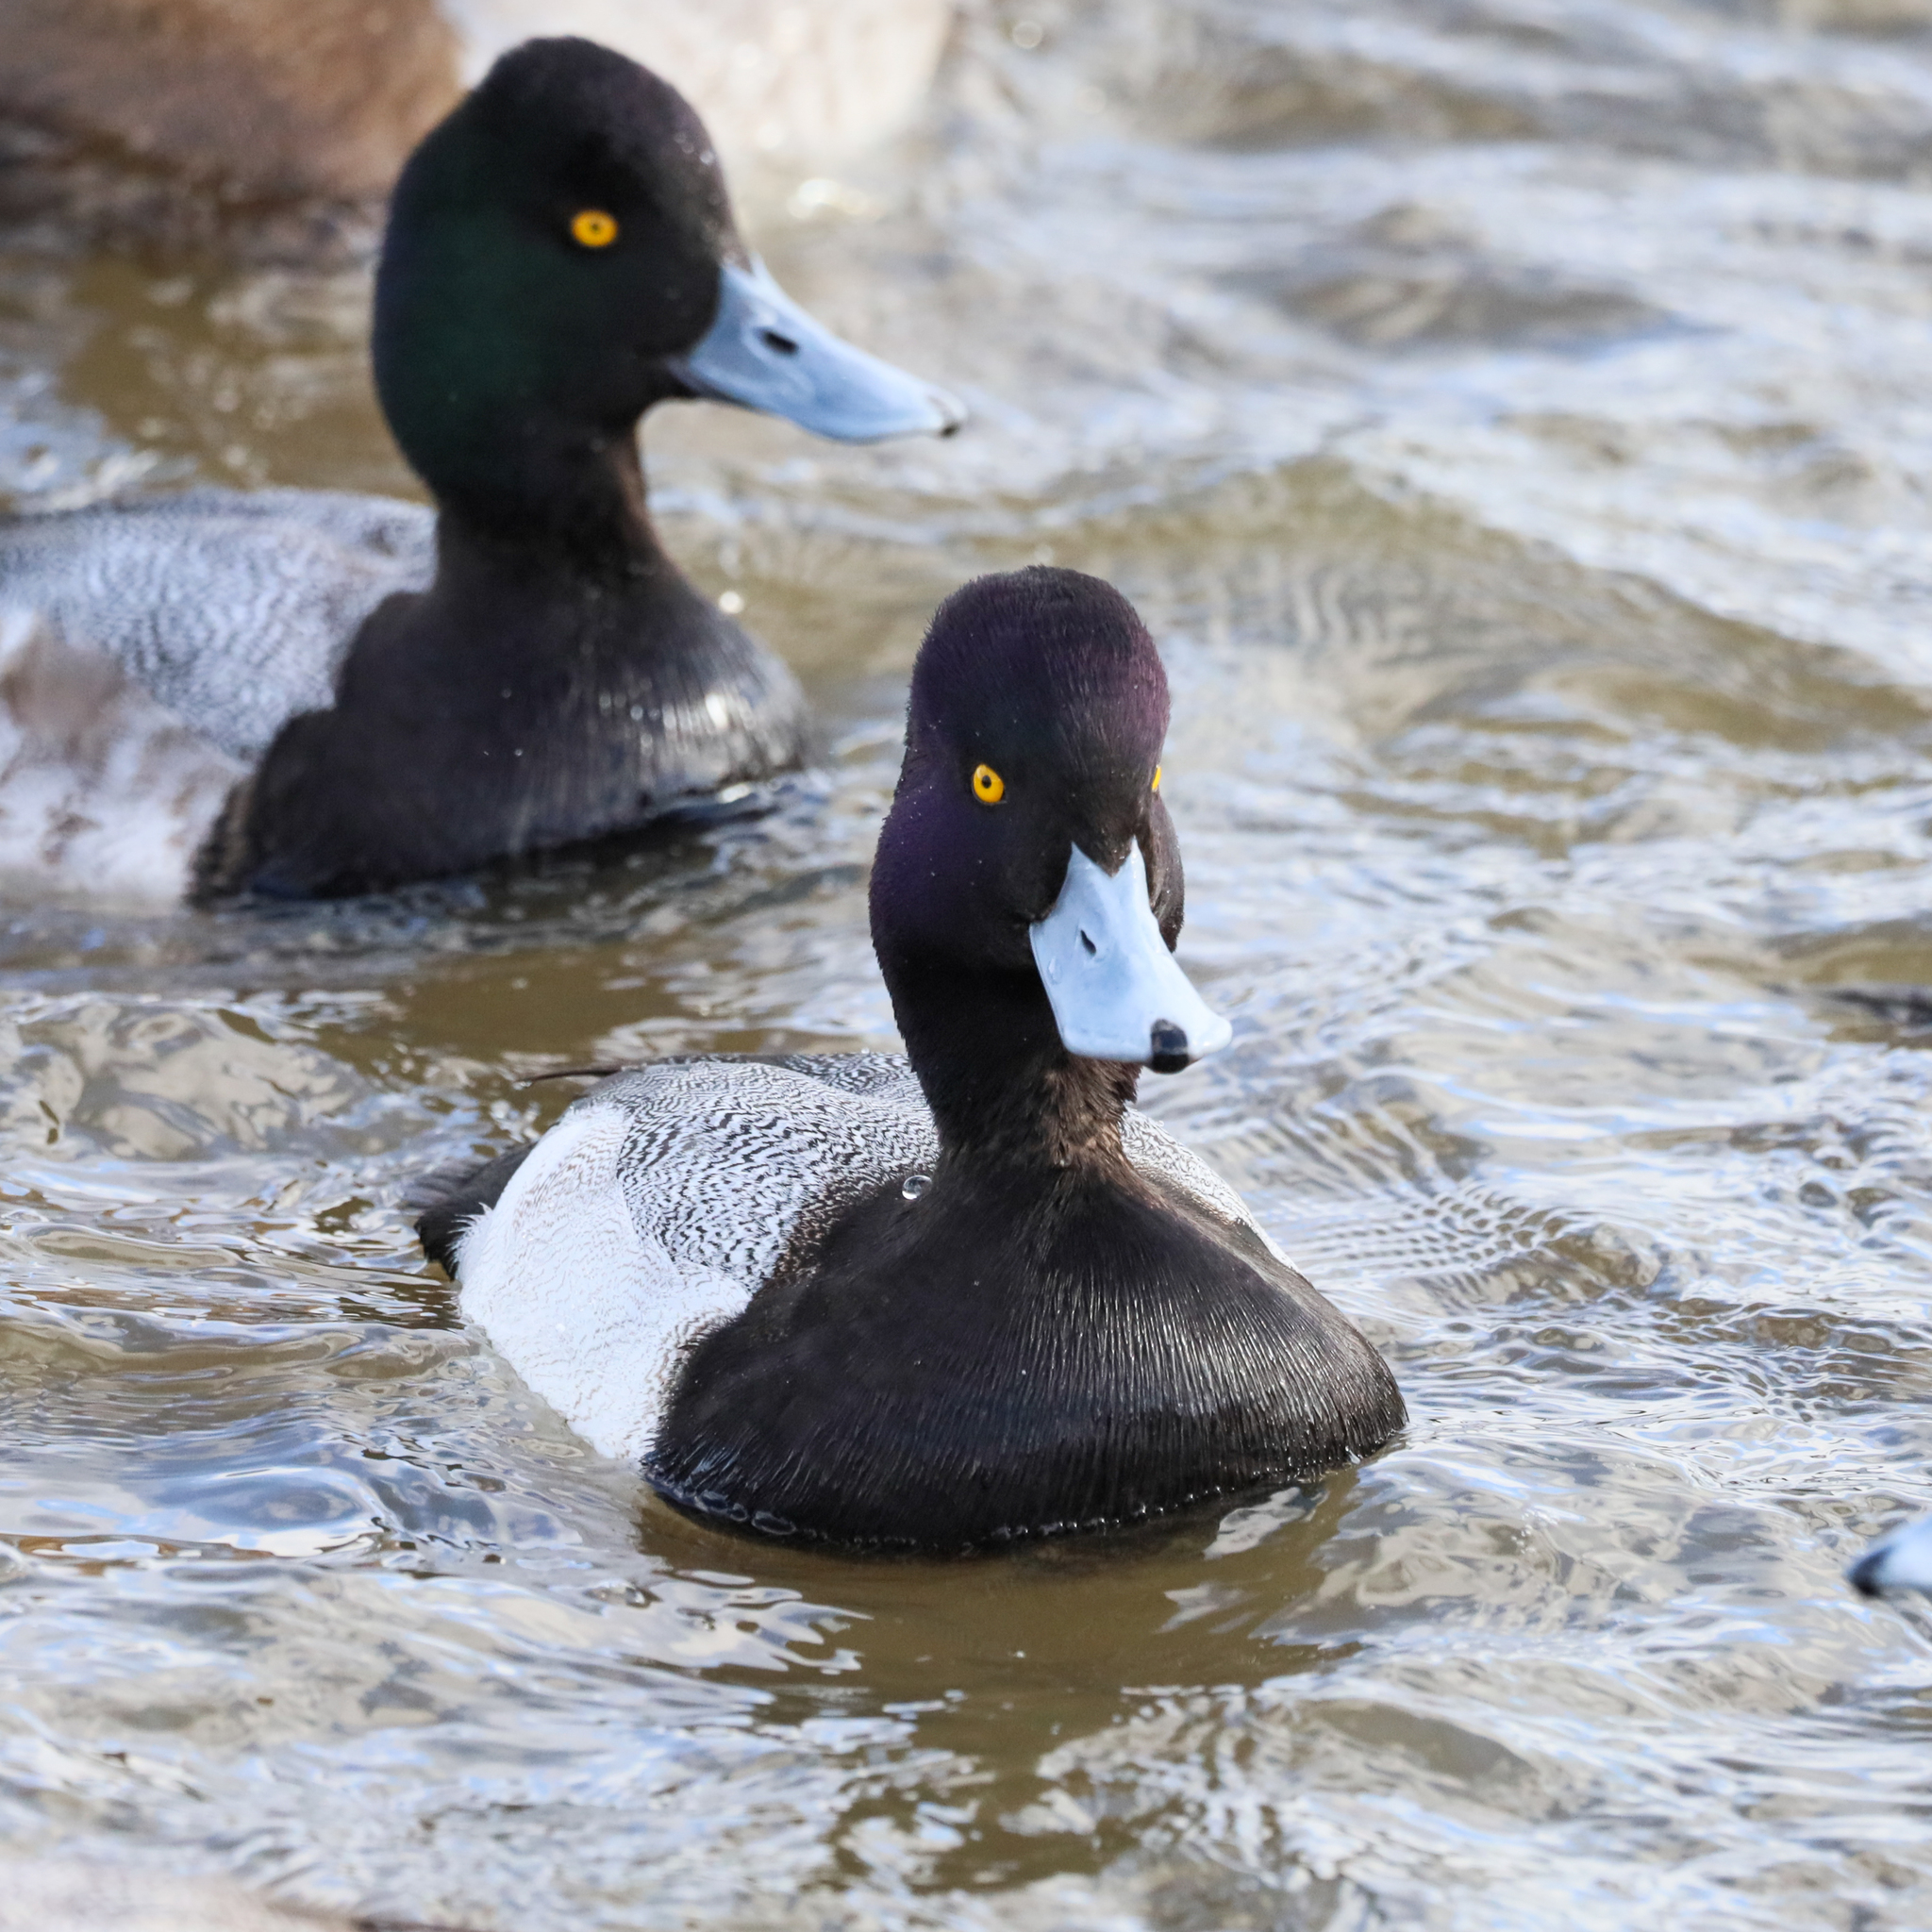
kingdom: Animalia
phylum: Chordata
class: Aves
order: Anseriformes
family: Anatidae
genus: Aythya
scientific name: Aythya affinis
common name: Lesser scaup
